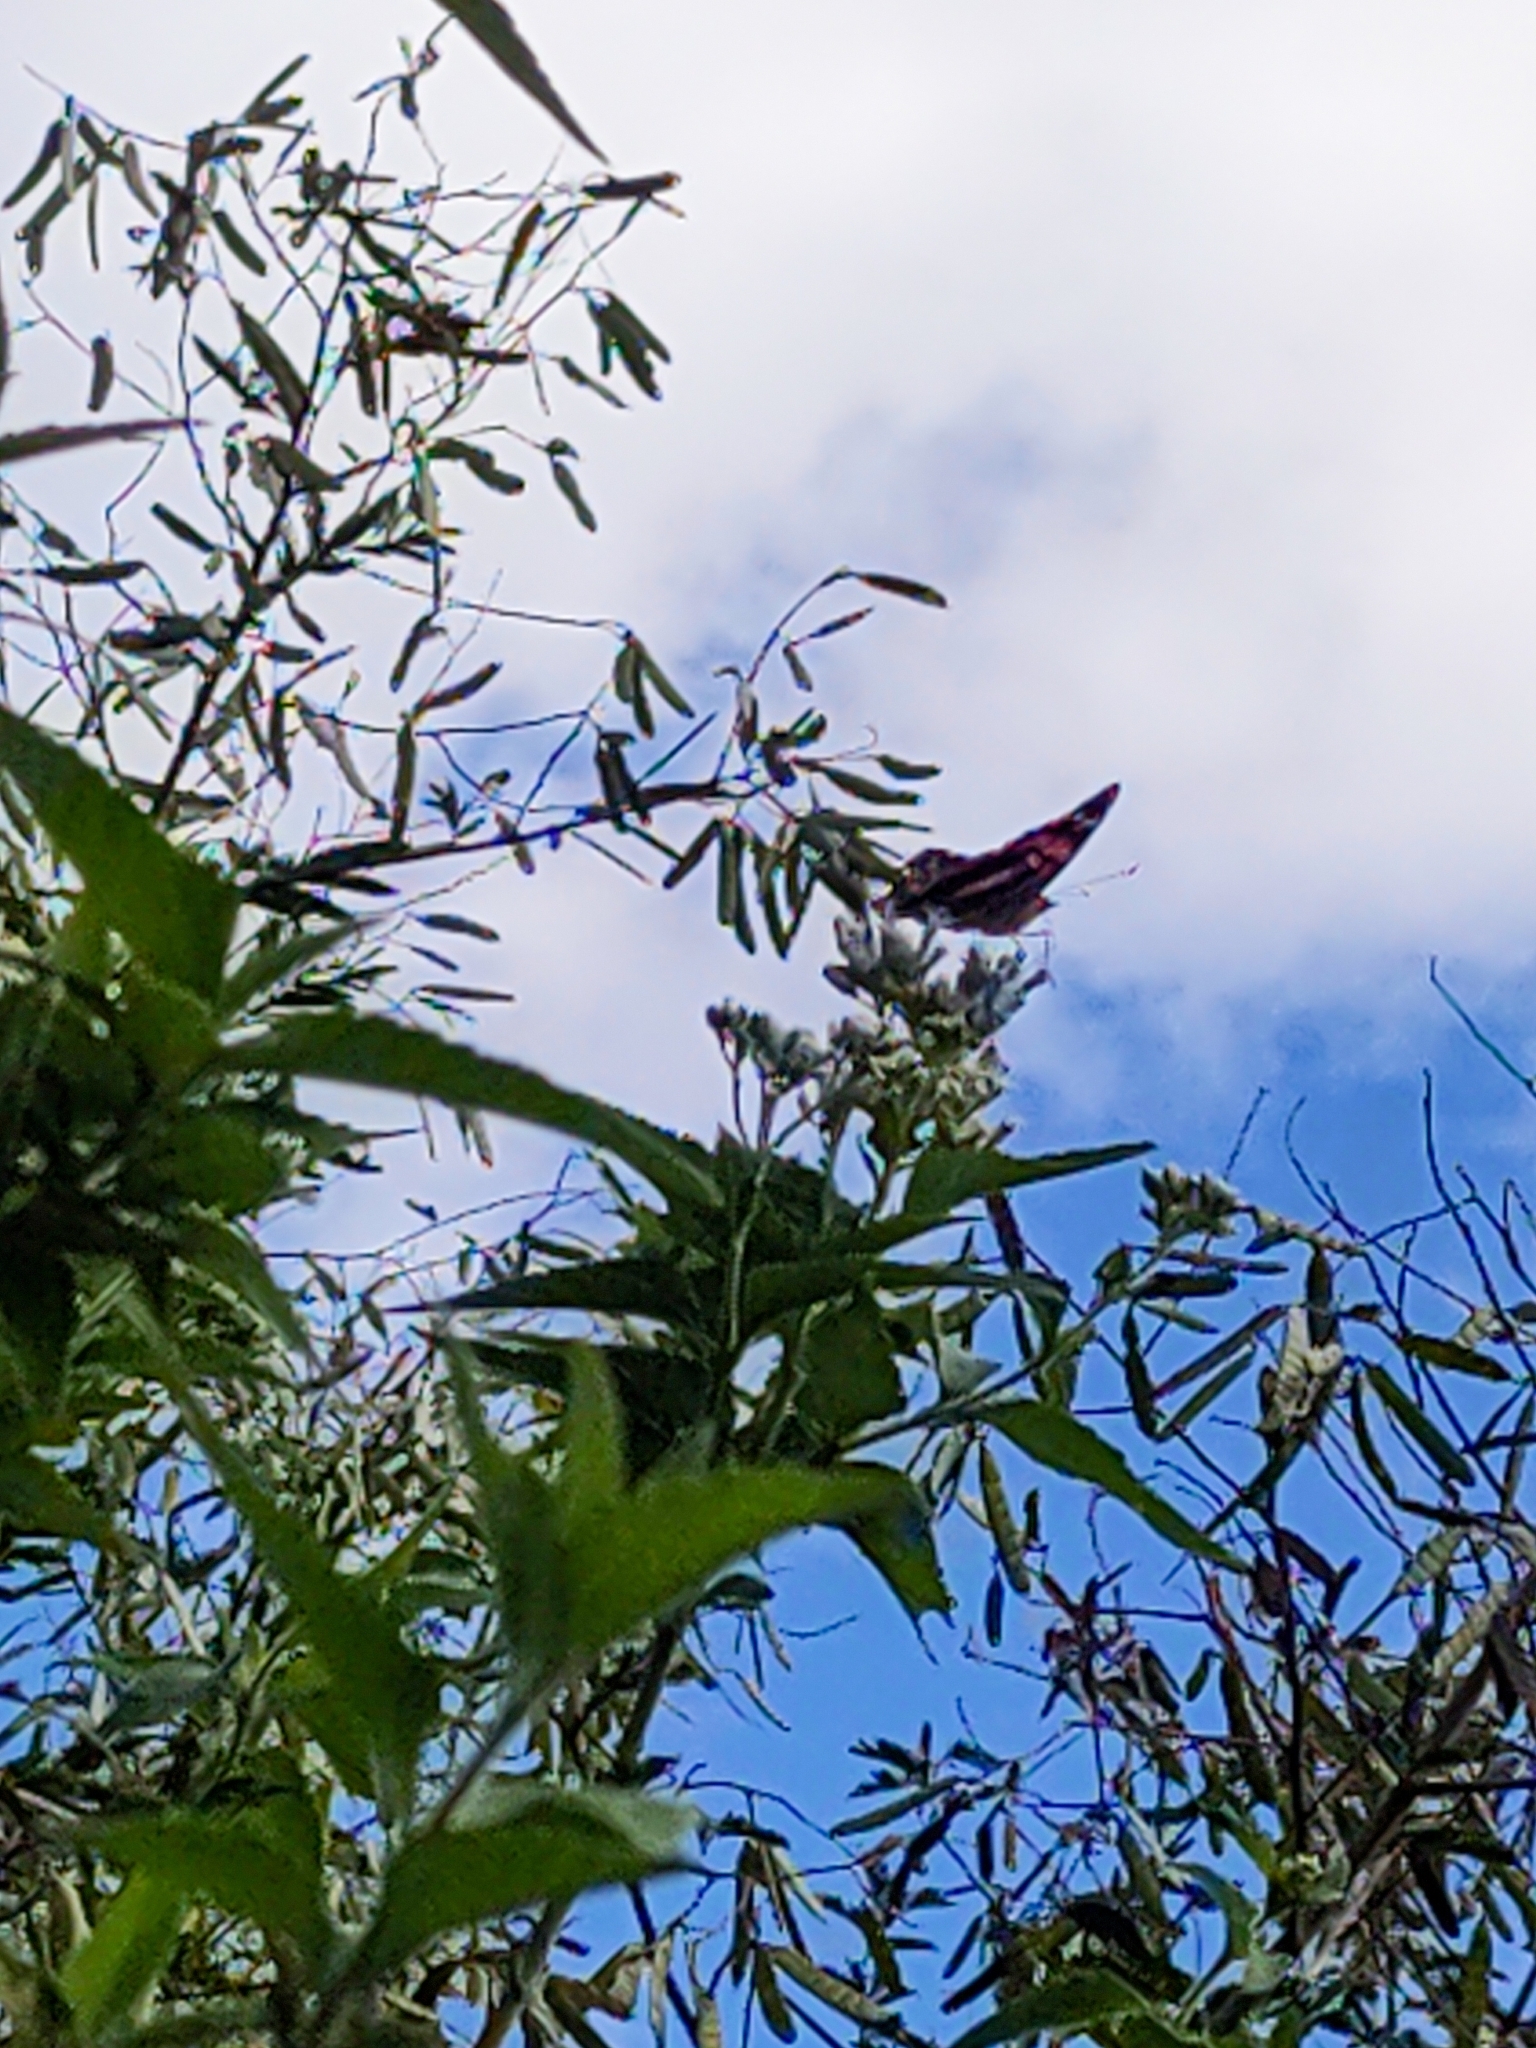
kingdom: Animalia
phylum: Arthropoda
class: Insecta
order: Lepidoptera
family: Nymphalidae
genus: Vanessa
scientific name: Vanessa myrinna
